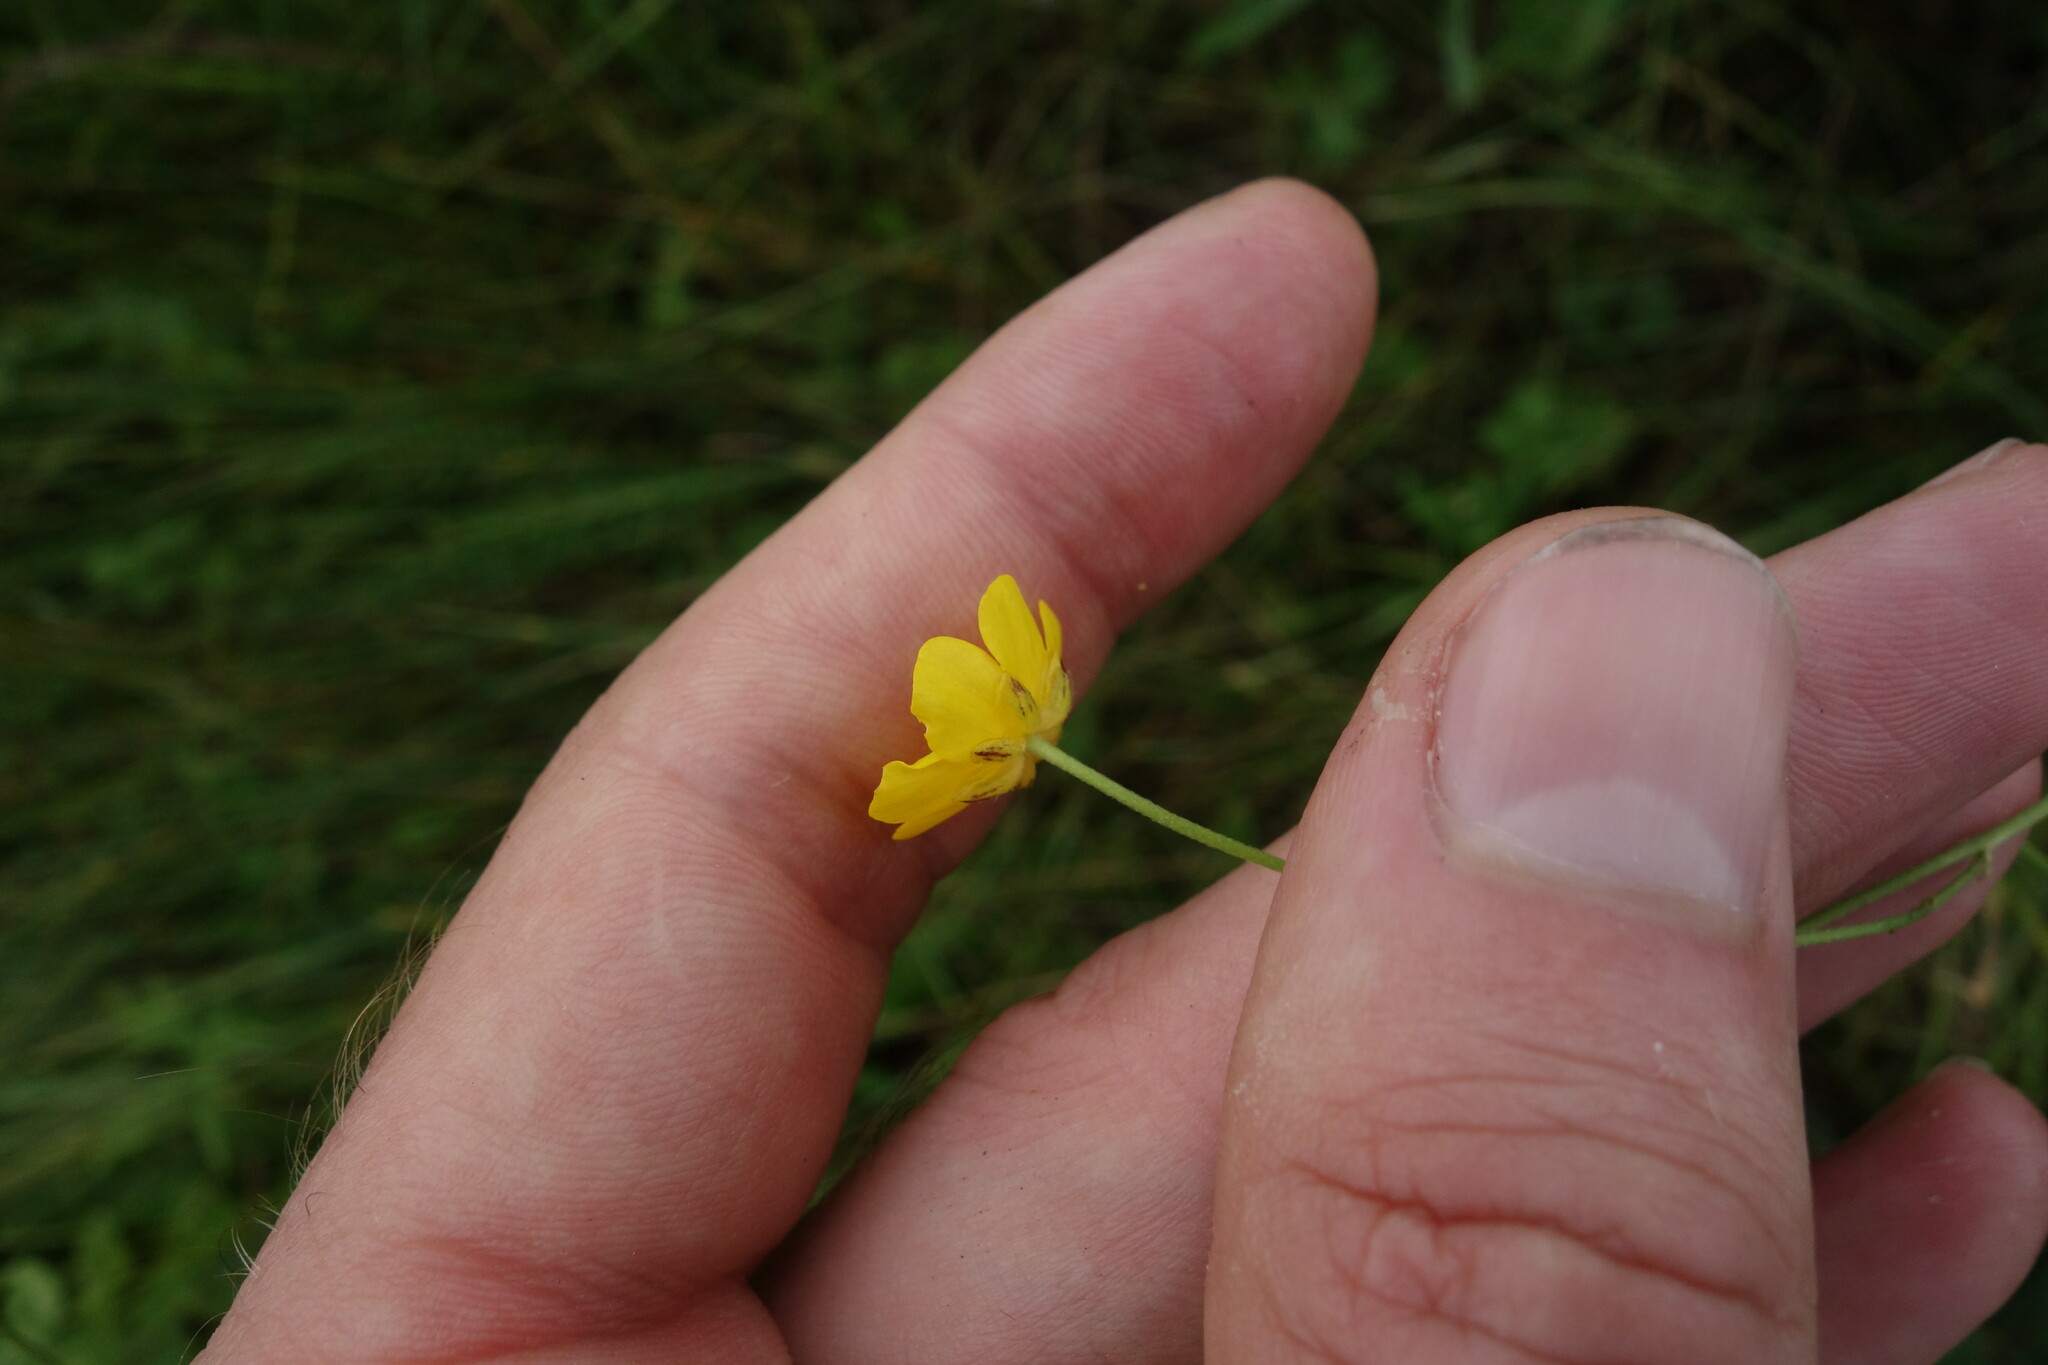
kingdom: Plantae
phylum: Tracheophyta
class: Magnoliopsida
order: Ranunculales
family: Ranunculaceae
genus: Ranunculus
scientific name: Ranunculus acris
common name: Meadow buttercup
